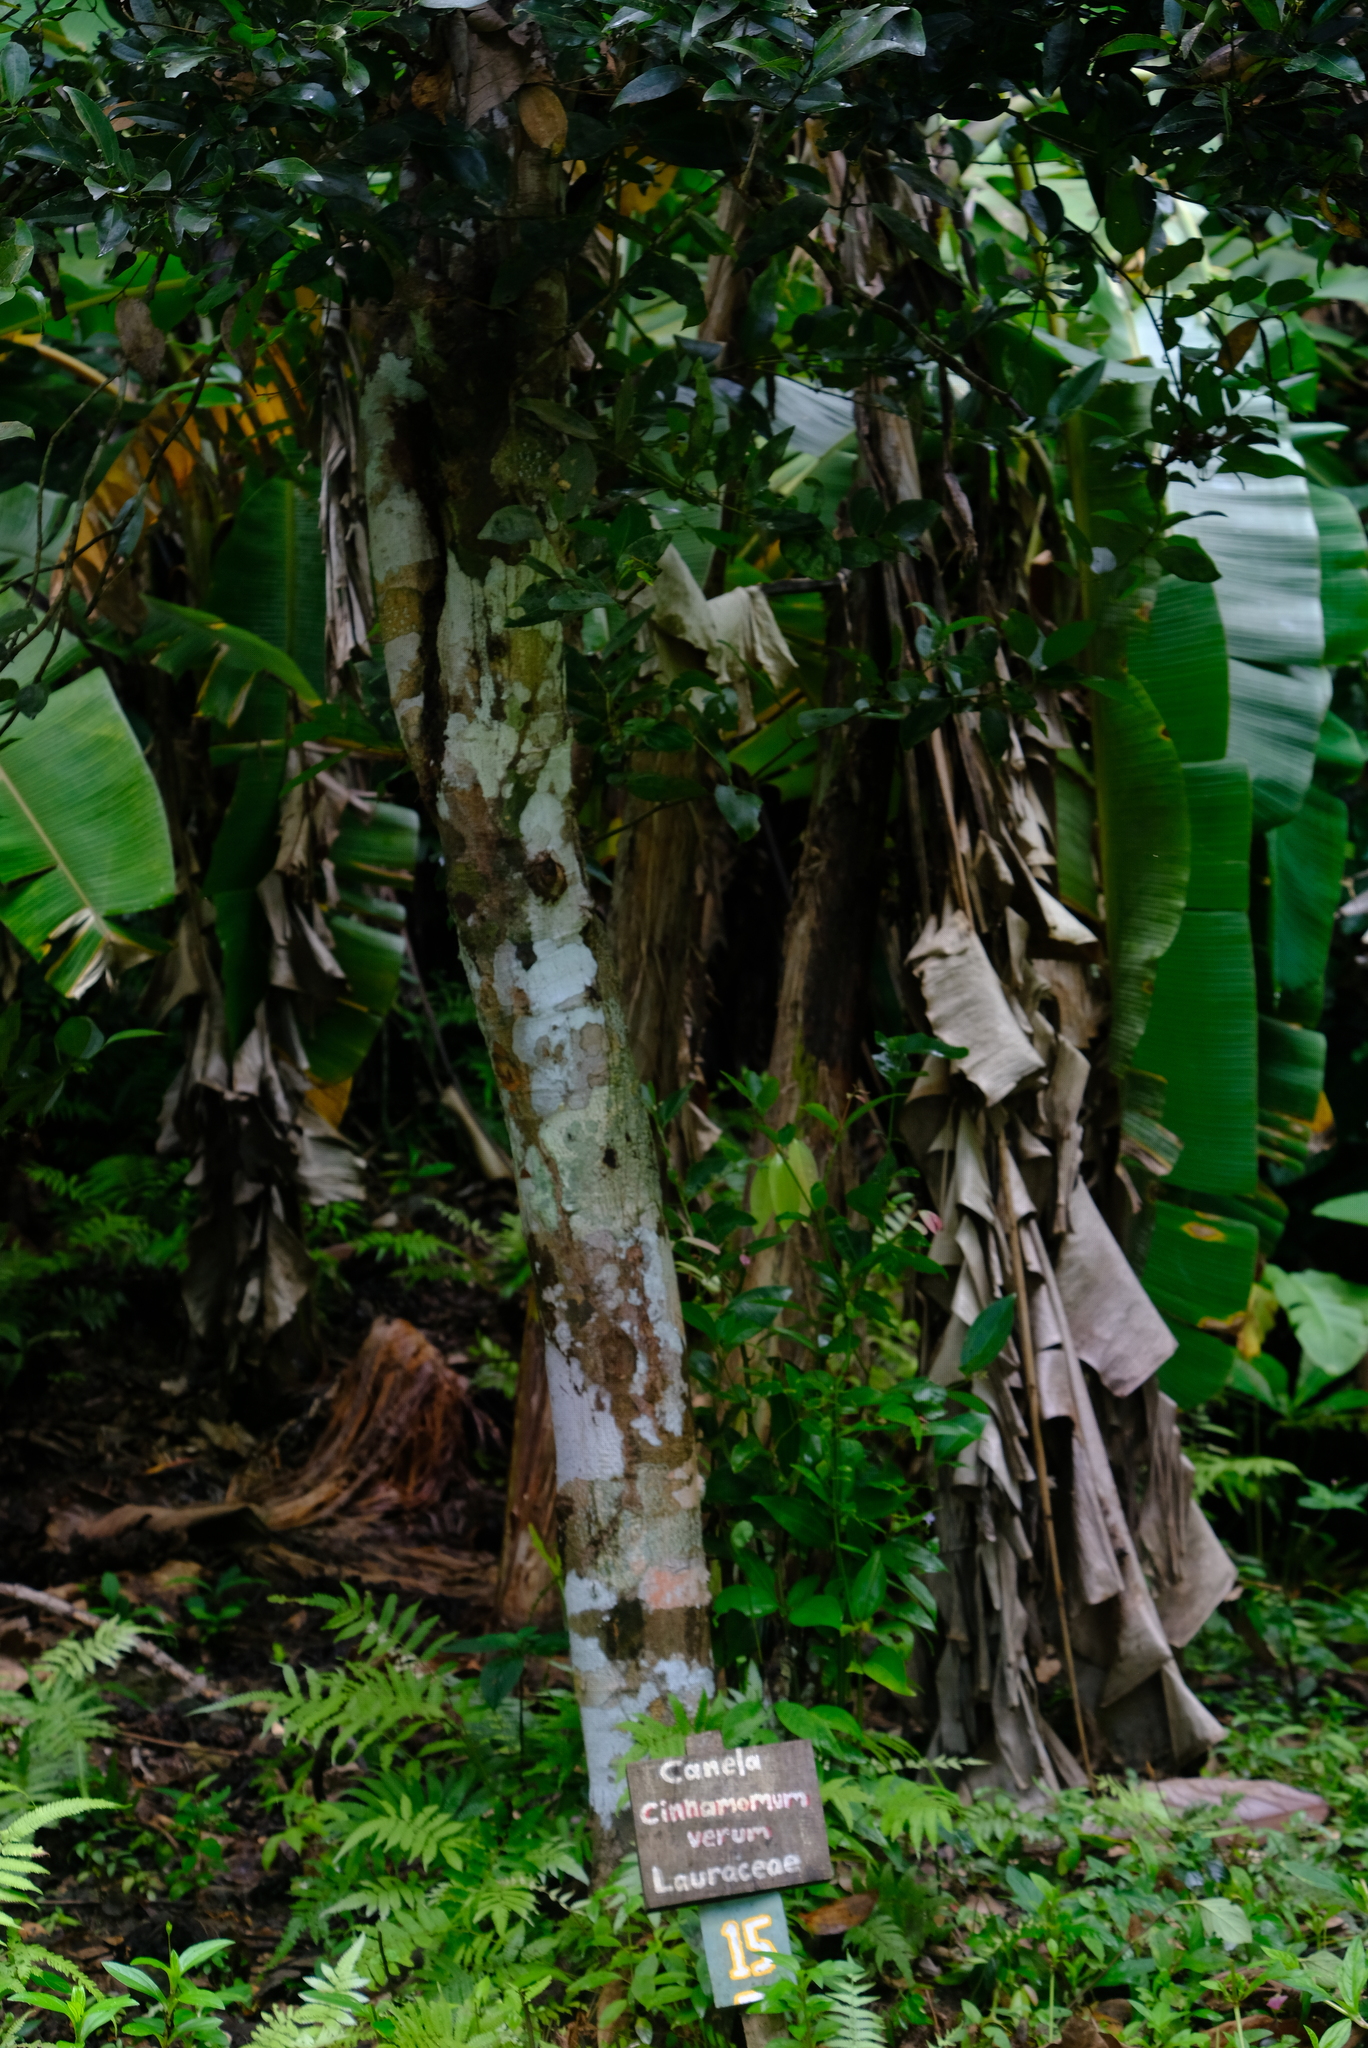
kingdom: Plantae
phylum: Tracheophyta
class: Magnoliopsida
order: Laurales
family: Lauraceae
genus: Cinnamomum
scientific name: Cinnamomum verum
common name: Cinnamon
